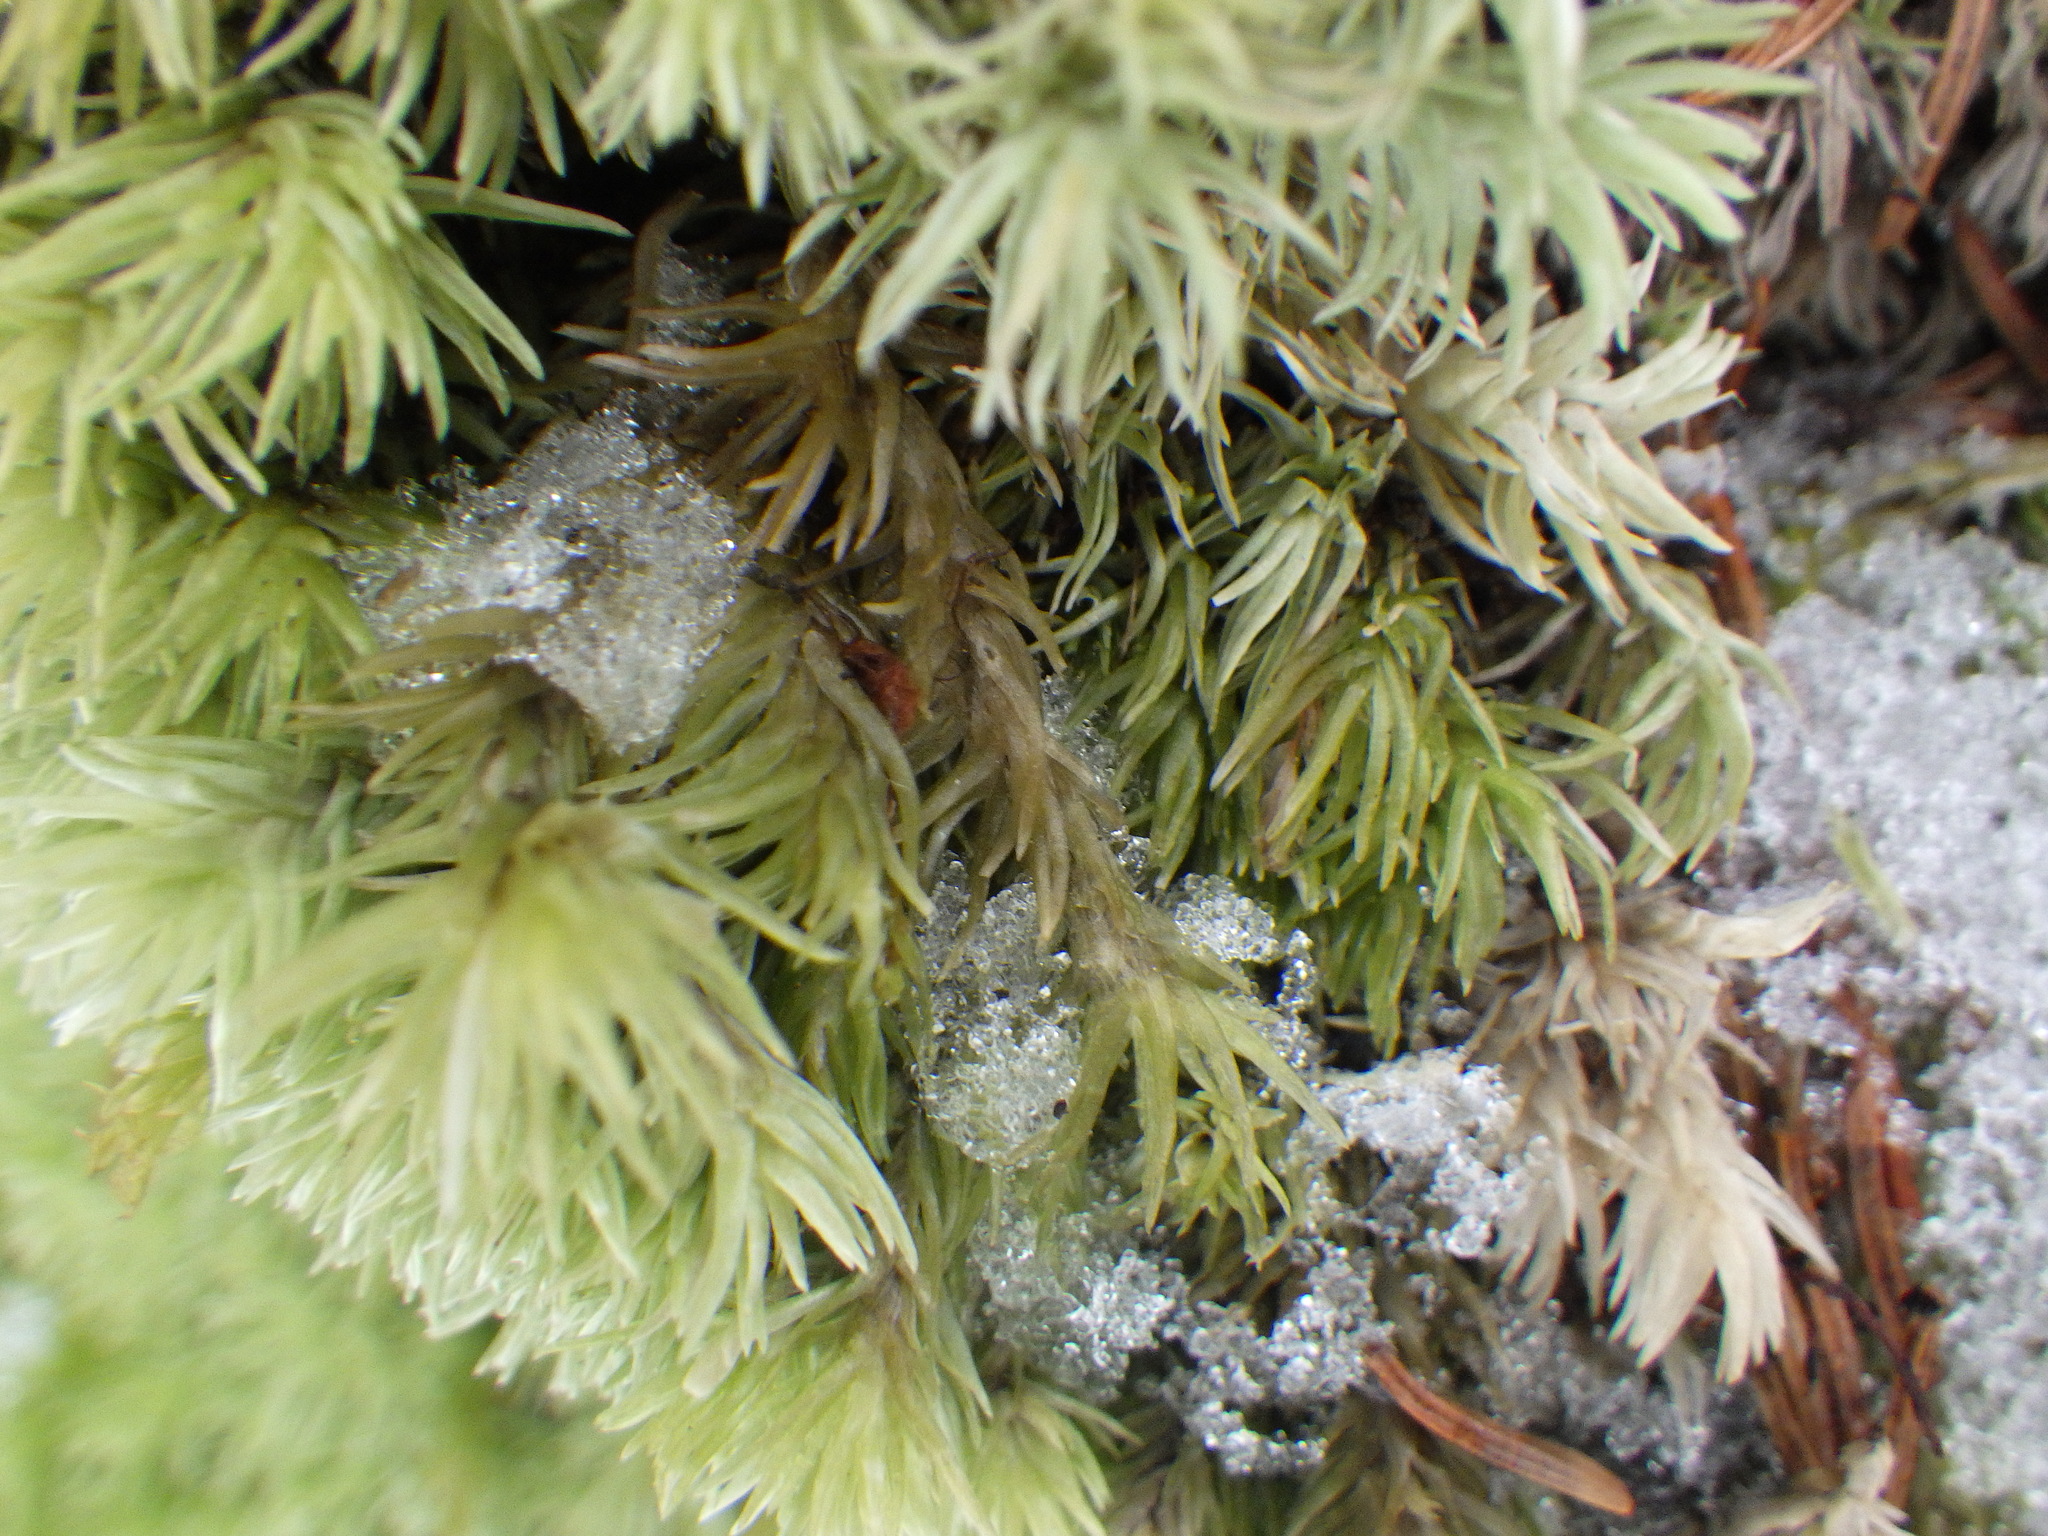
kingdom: Plantae
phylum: Bryophyta
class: Bryopsida
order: Dicranales
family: Leucobryaceae
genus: Leucobryum
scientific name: Leucobryum glaucum
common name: Large white-moss
